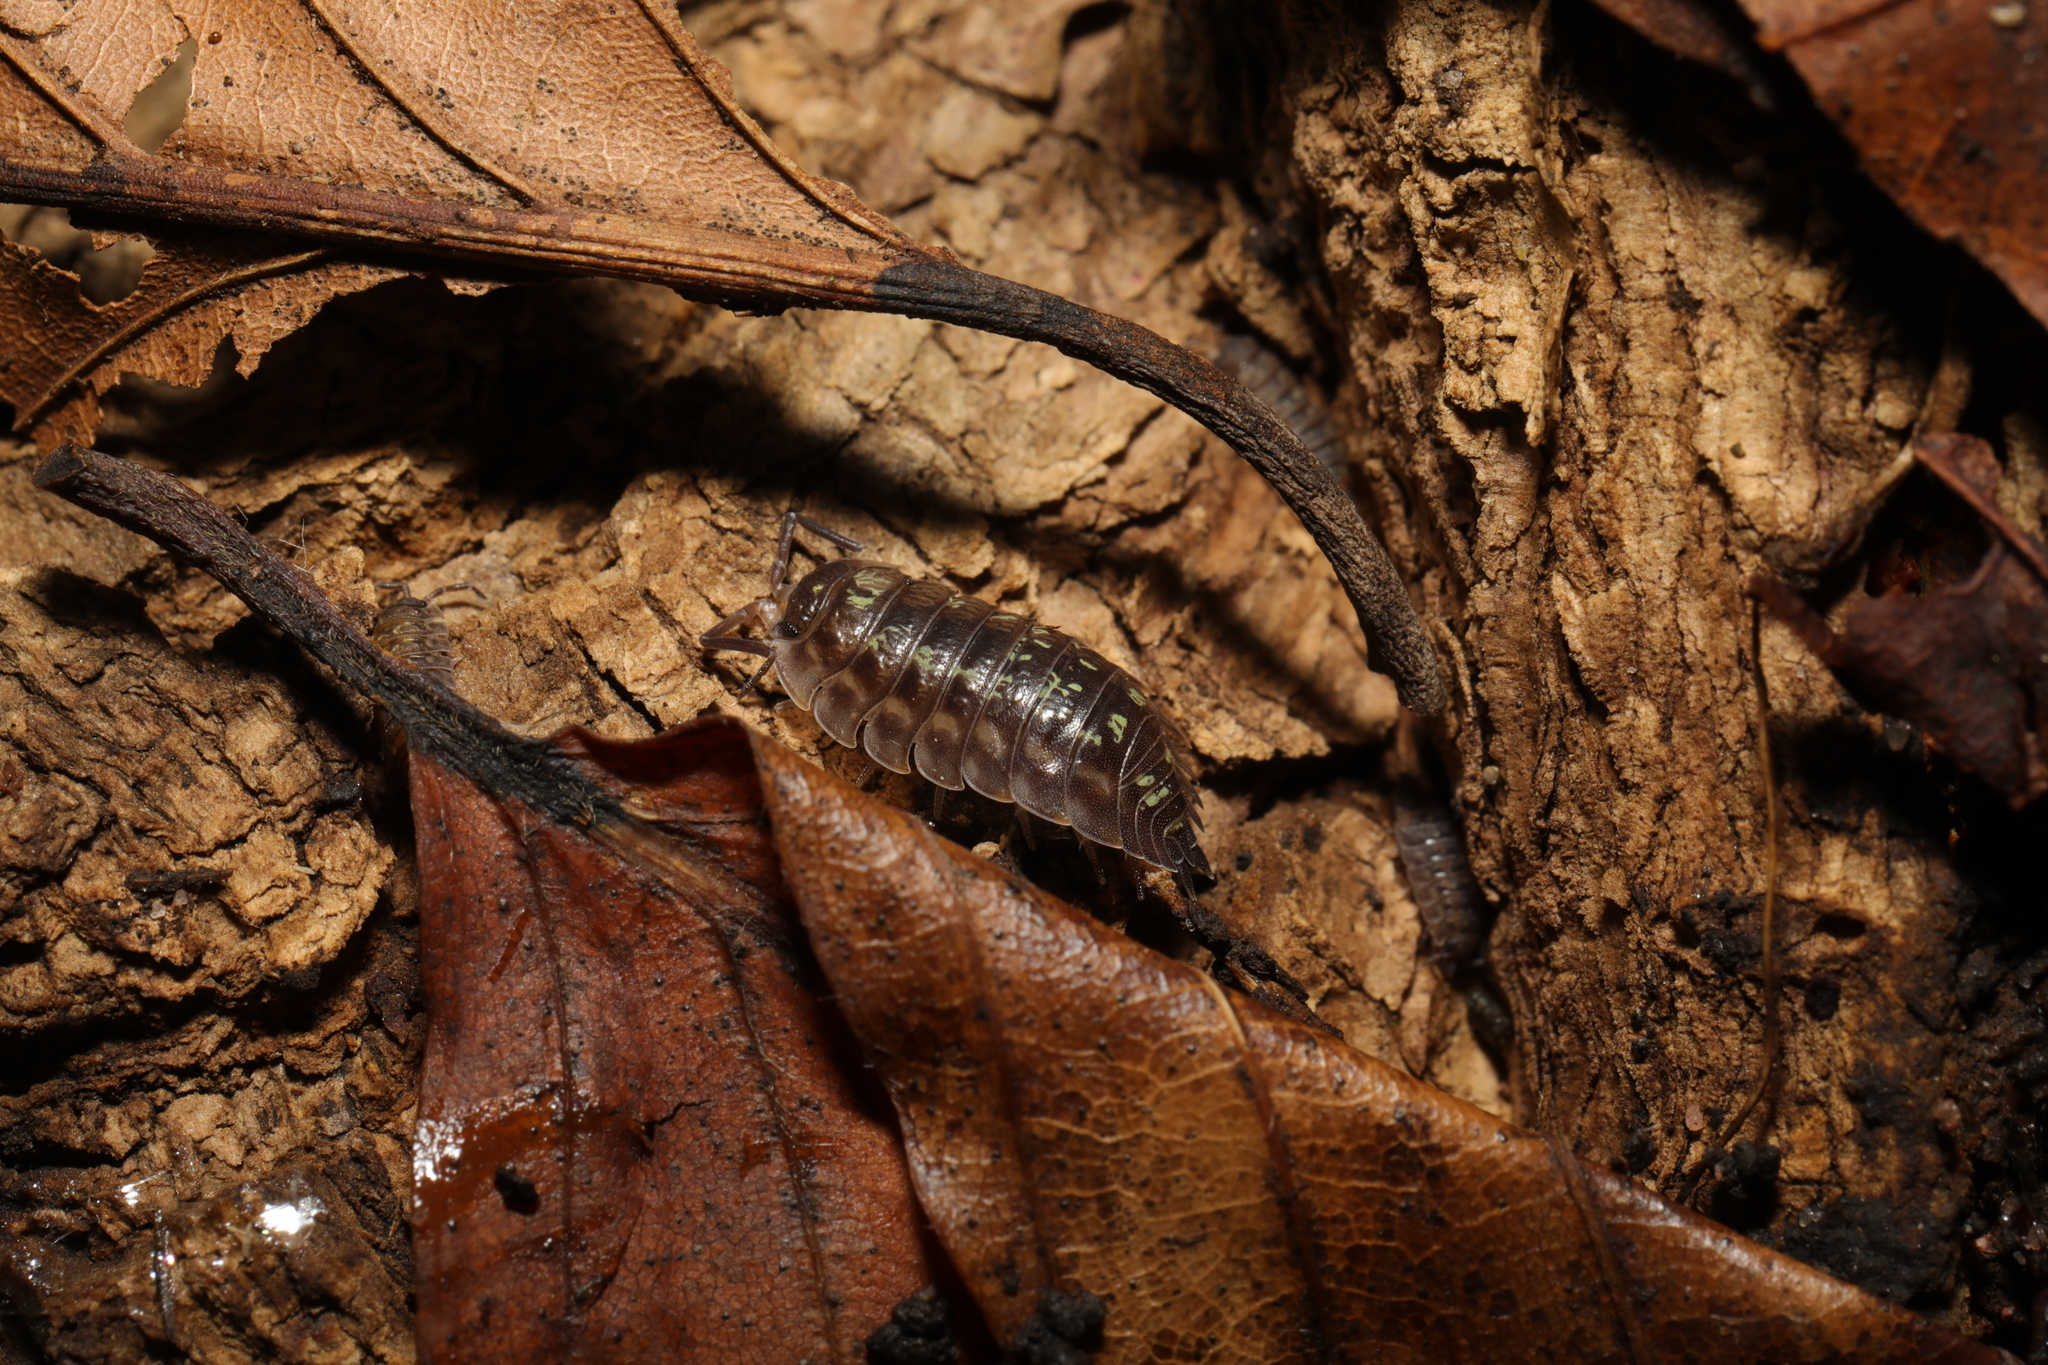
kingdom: Animalia
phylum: Arthropoda
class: Malacostraca
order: Isopoda
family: Oniscidae
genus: Oniscus
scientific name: Oniscus asellus
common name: Common shiny woodlouse
